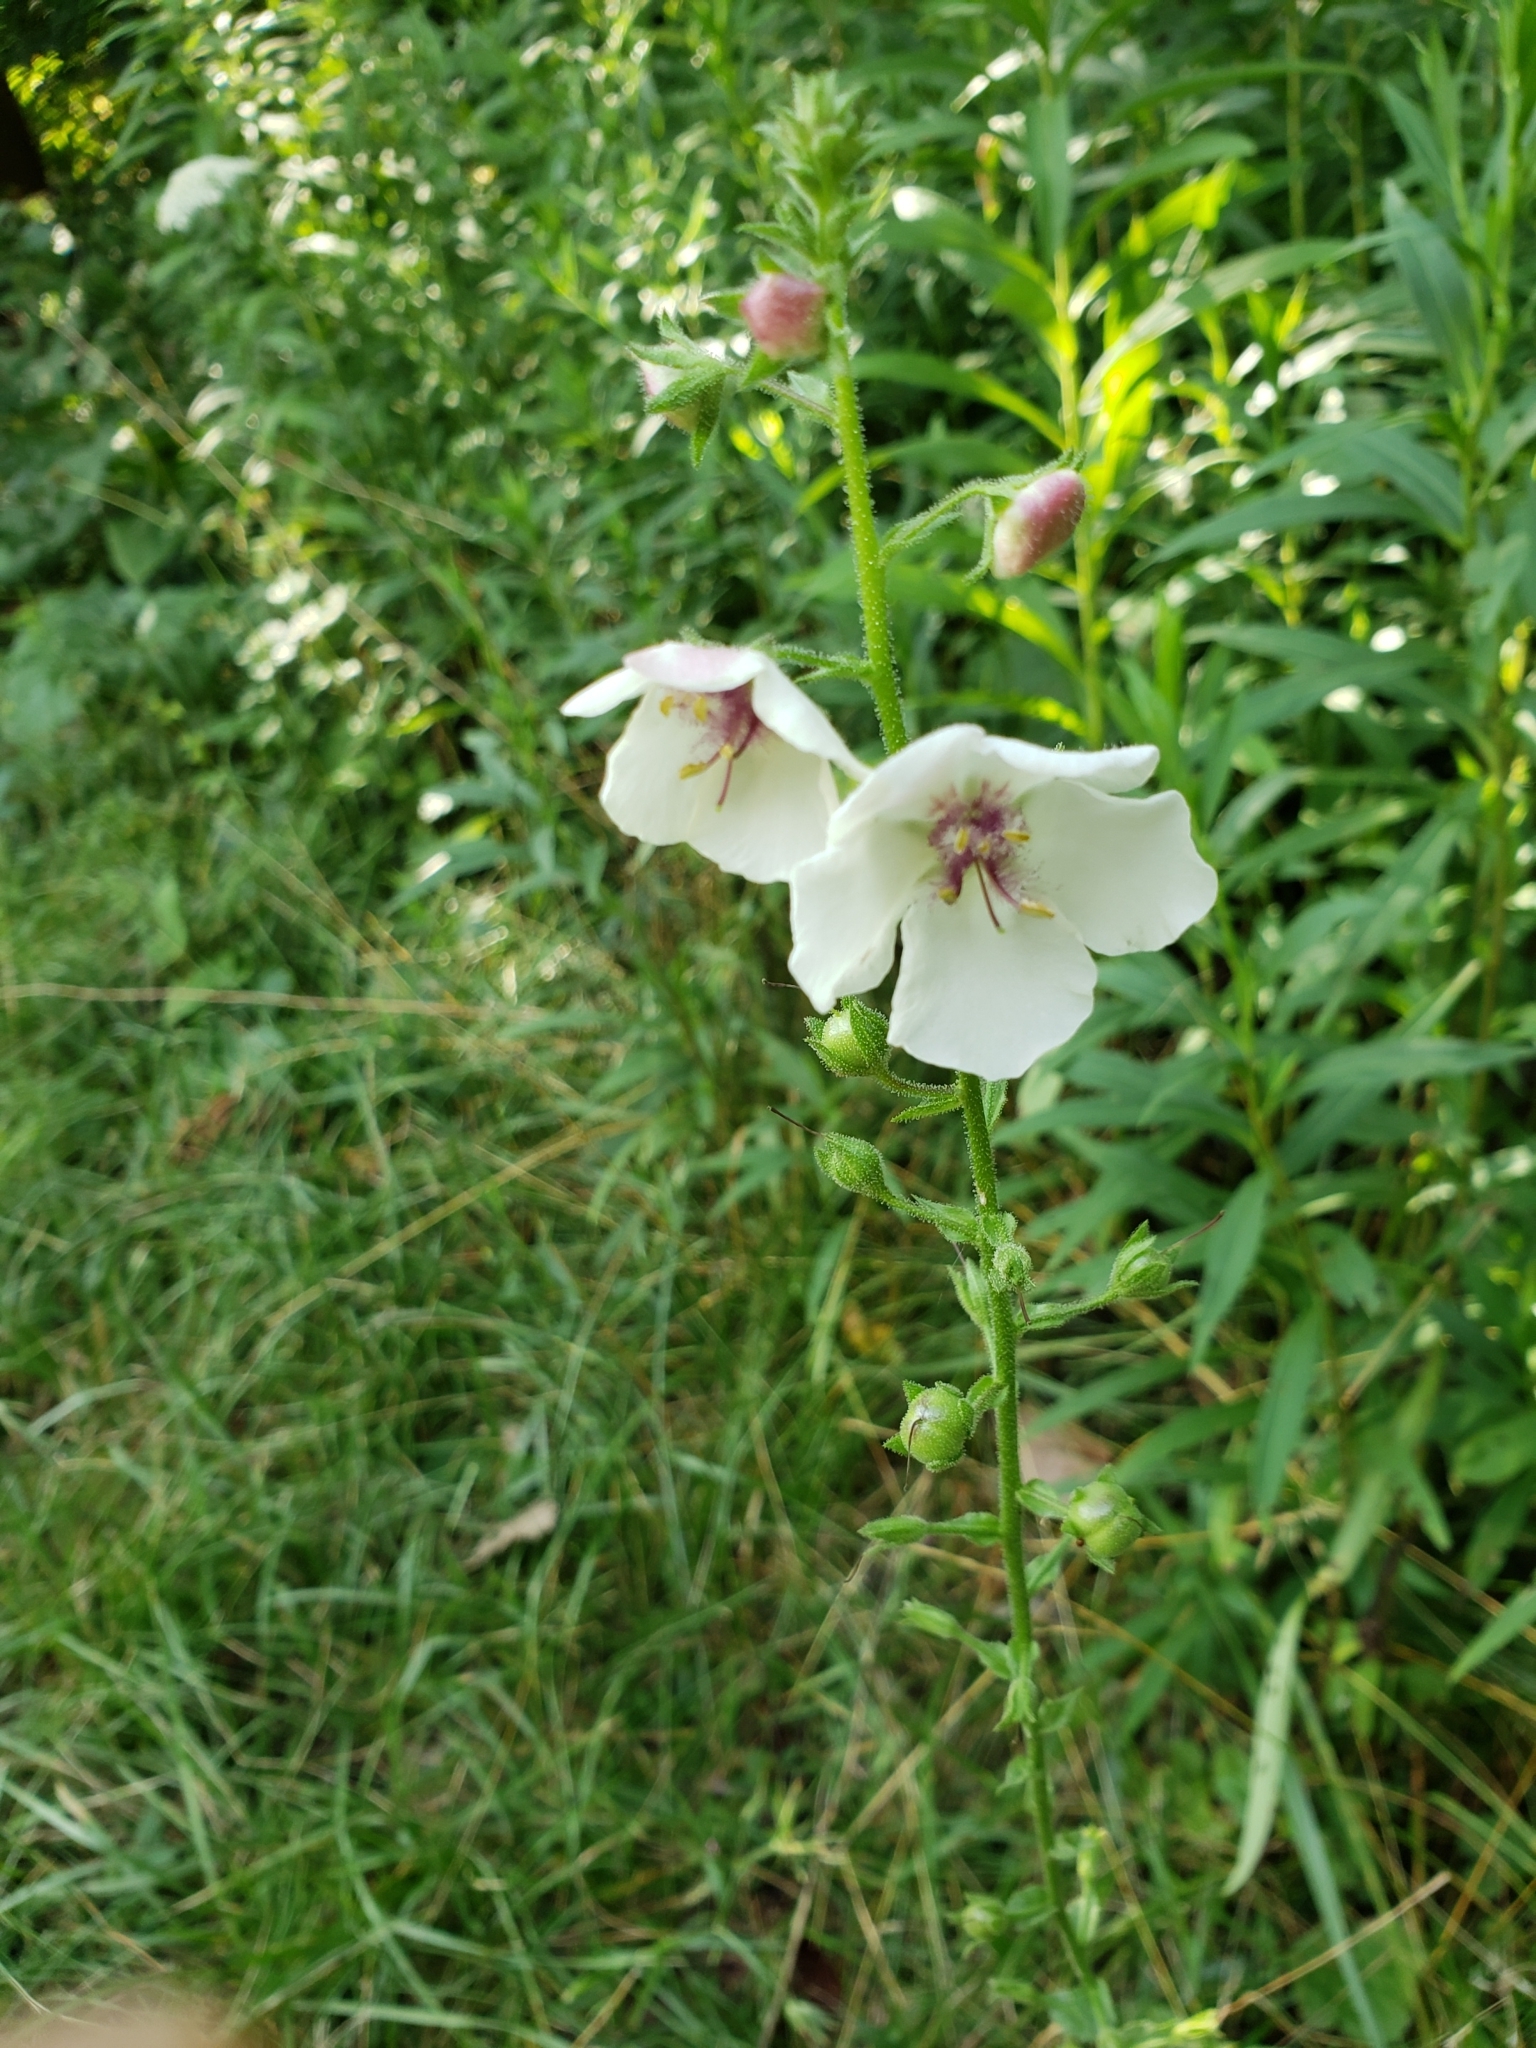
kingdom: Plantae
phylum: Tracheophyta
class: Magnoliopsida
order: Lamiales
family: Scrophulariaceae
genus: Verbascum
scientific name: Verbascum blattaria
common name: Moth mullein
